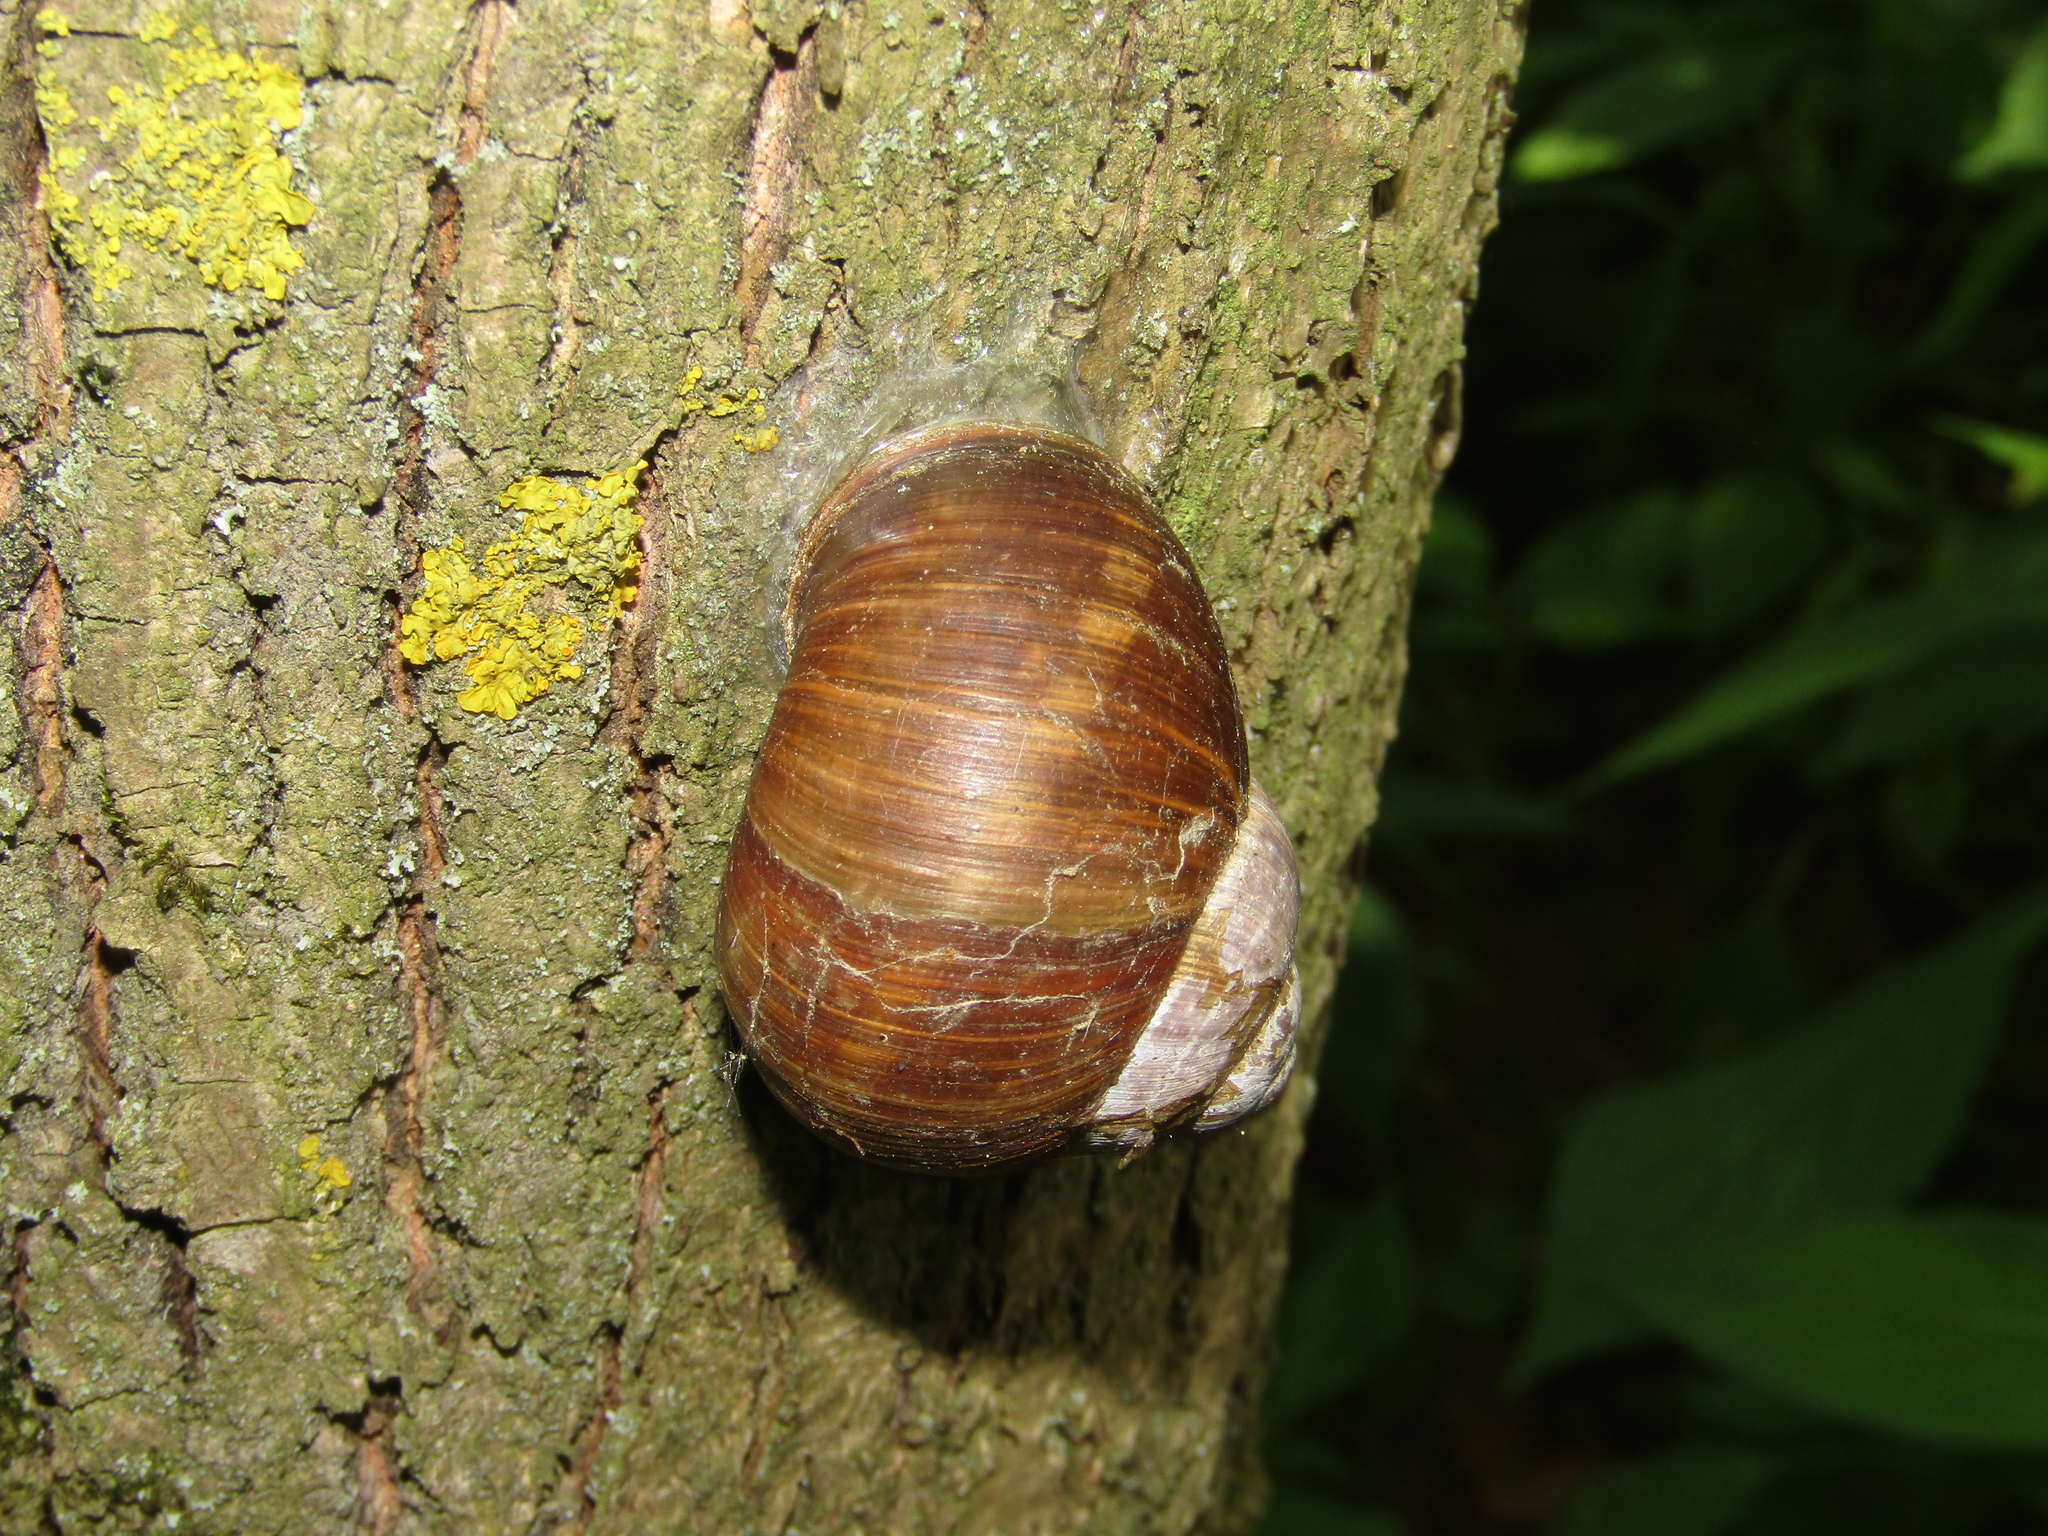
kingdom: Animalia
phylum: Mollusca
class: Gastropoda
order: Stylommatophora
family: Helicidae
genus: Helix
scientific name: Helix pomatia
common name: Roman snail
